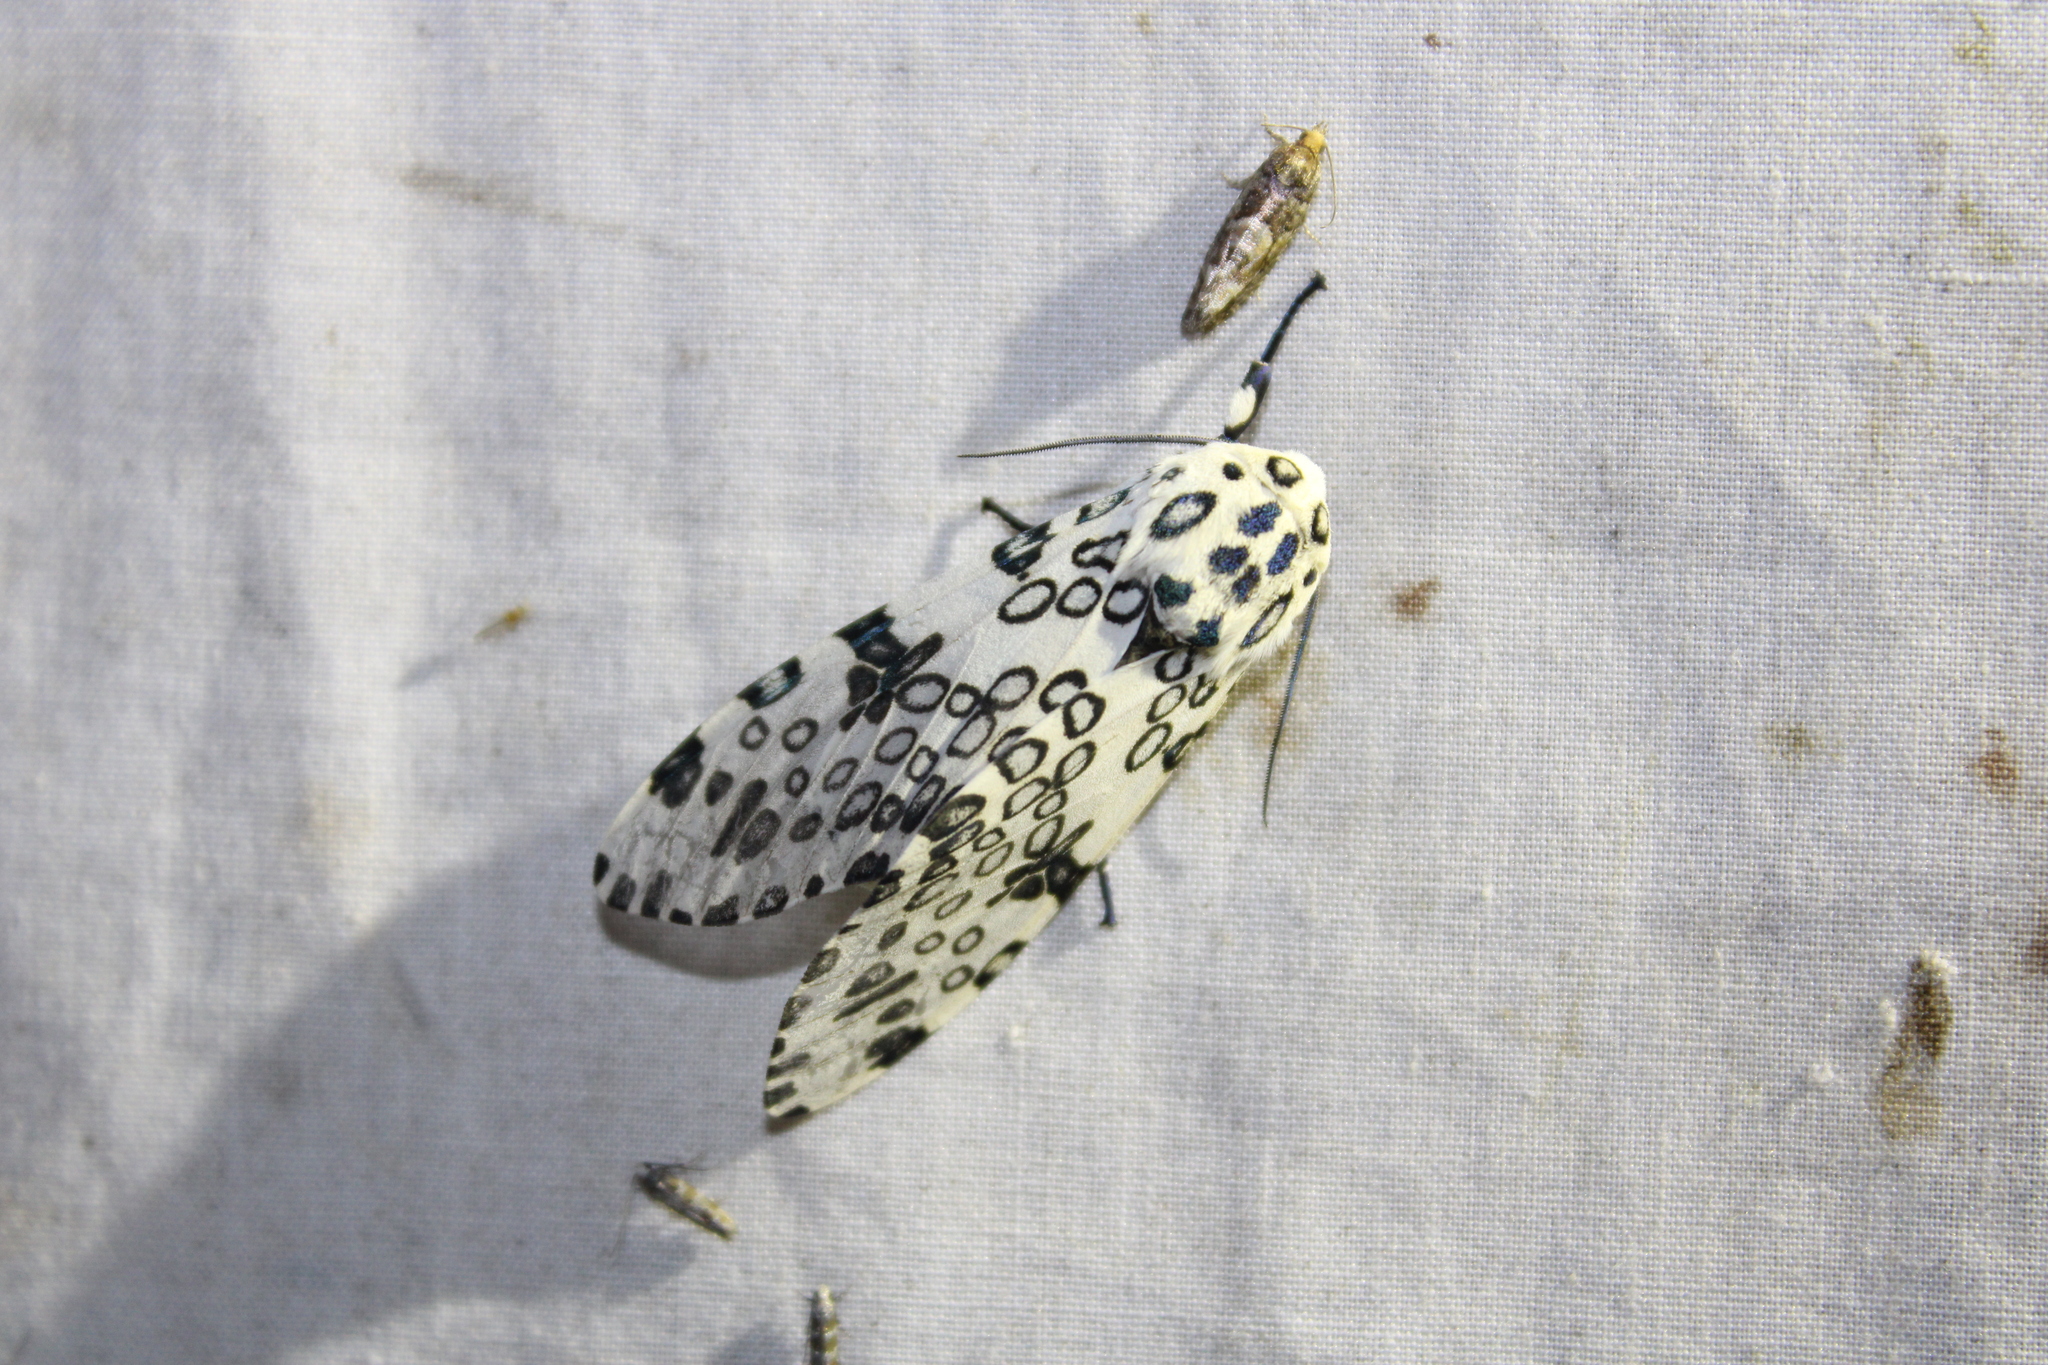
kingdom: Animalia
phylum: Arthropoda
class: Insecta
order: Lepidoptera
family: Erebidae
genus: Hypercompe
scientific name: Hypercompe scribonia
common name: Giant leopard moth
